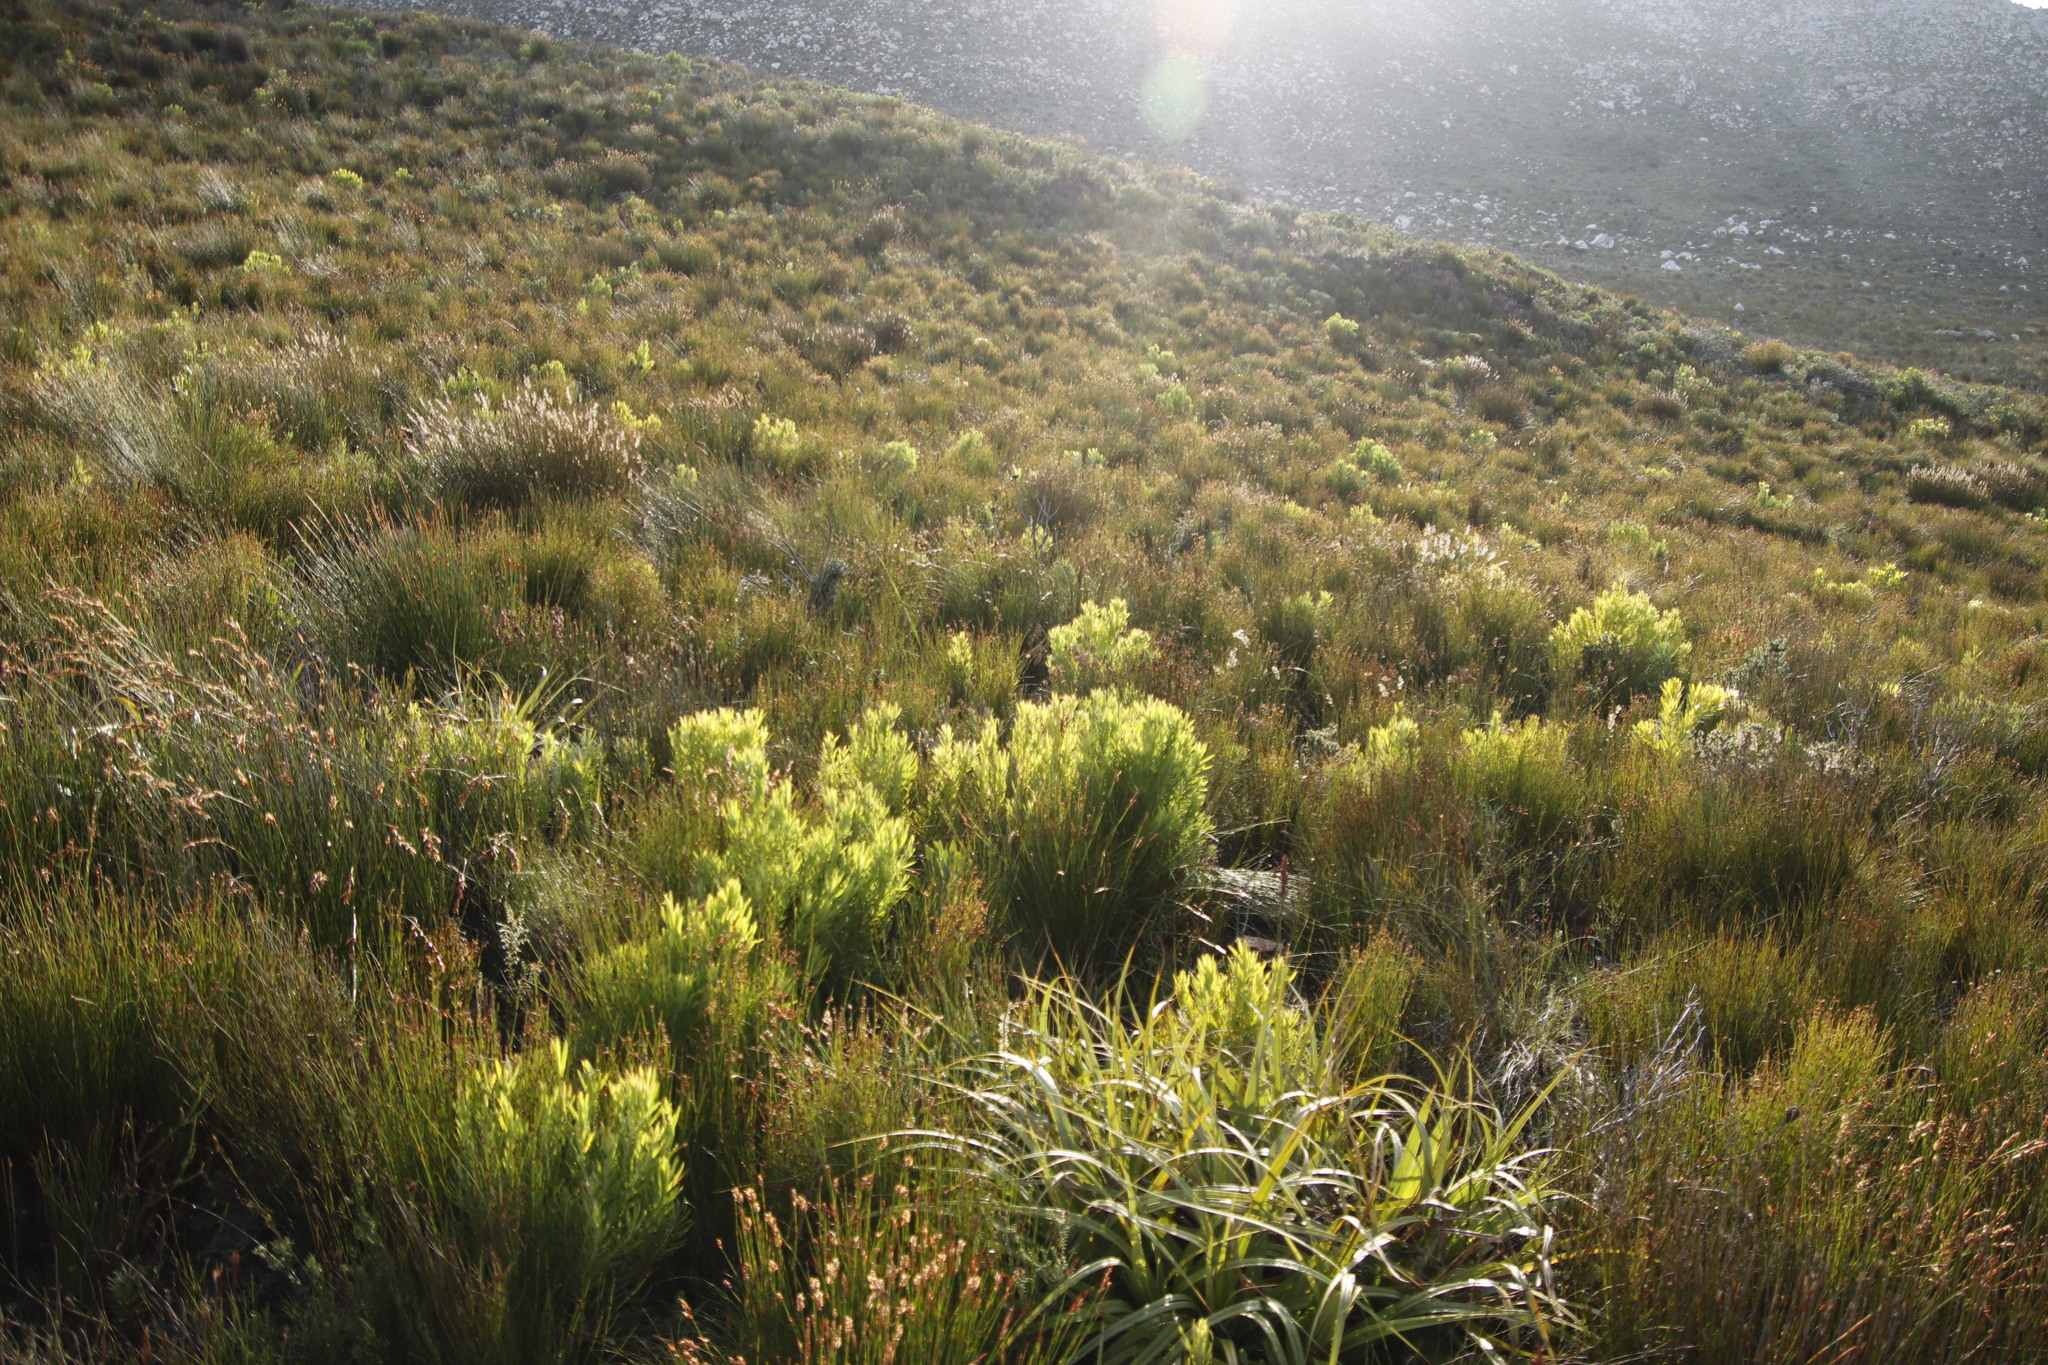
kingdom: Plantae
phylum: Tracheophyta
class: Magnoliopsida
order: Proteales
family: Proteaceae
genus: Leucadendron
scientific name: Leucadendron xanthoconus
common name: Sickle-leaf conebush
